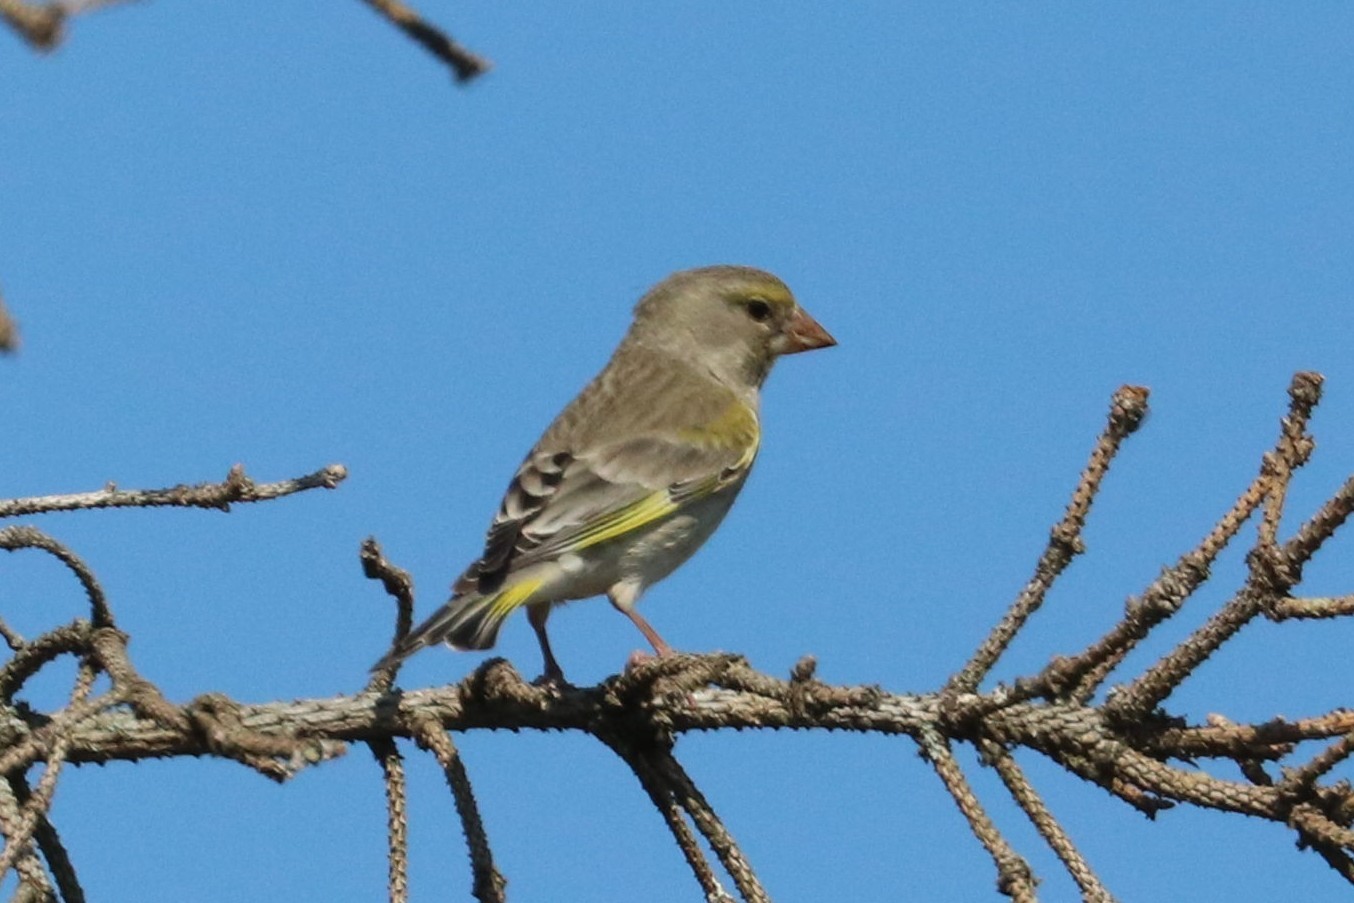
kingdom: Plantae
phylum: Tracheophyta
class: Liliopsida
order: Poales
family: Poaceae
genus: Chloris
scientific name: Chloris chloris
